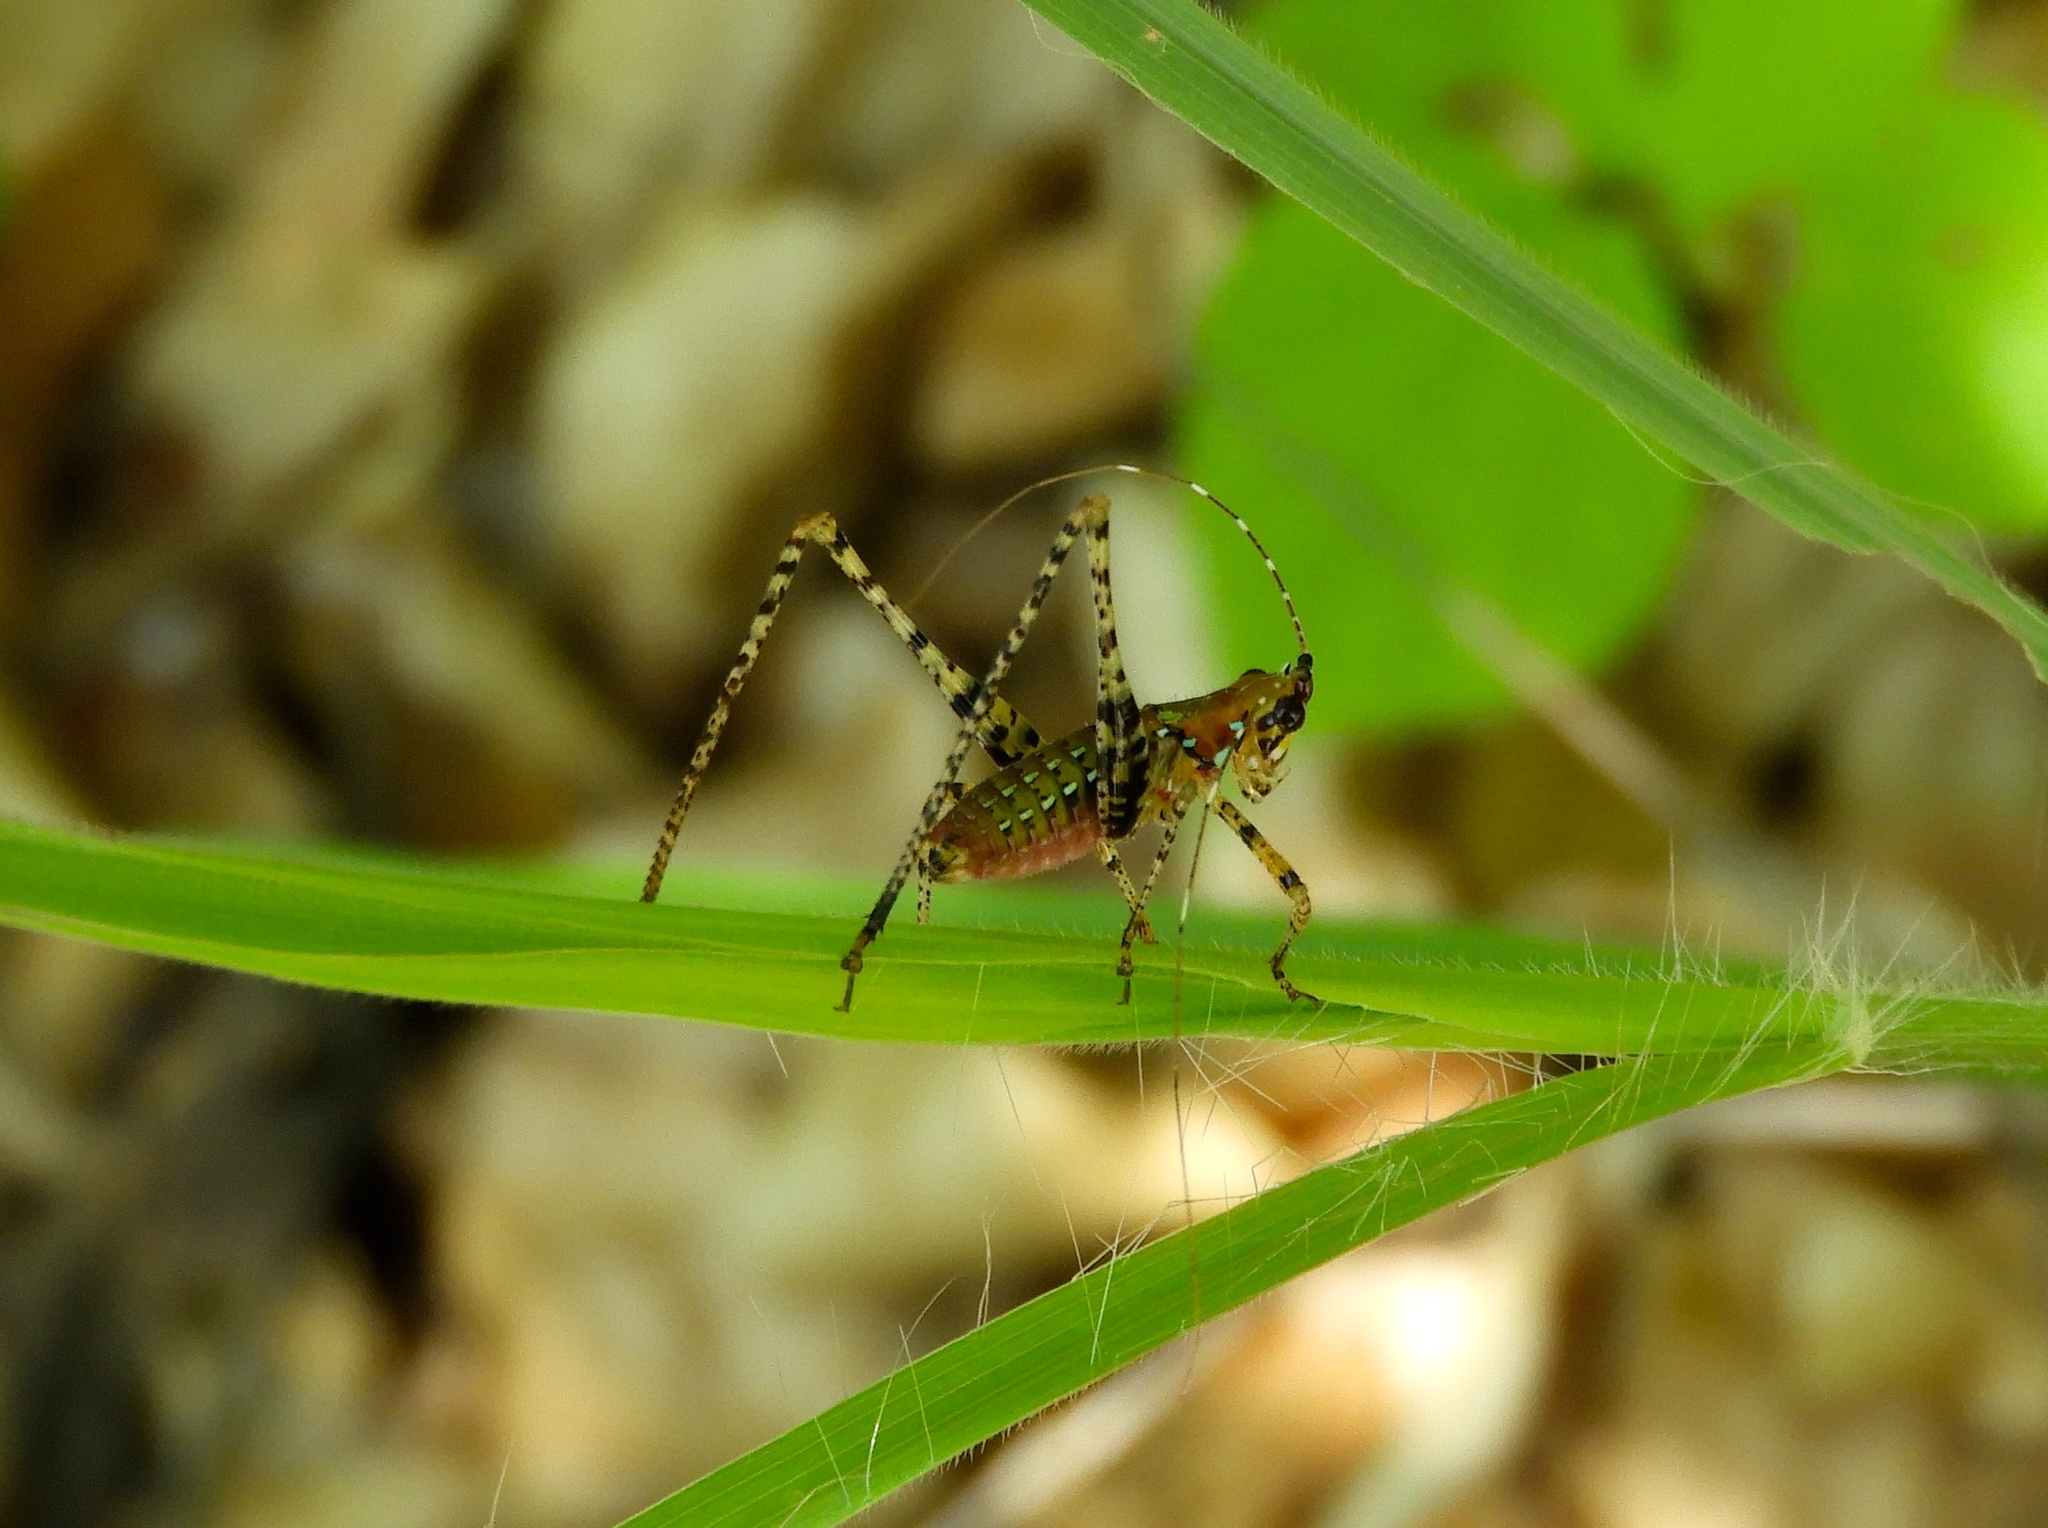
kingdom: Animalia
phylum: Arthropoda
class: Insecta
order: Orthoptera
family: Tettigoniidae
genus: Scudderia
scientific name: Scudderia
